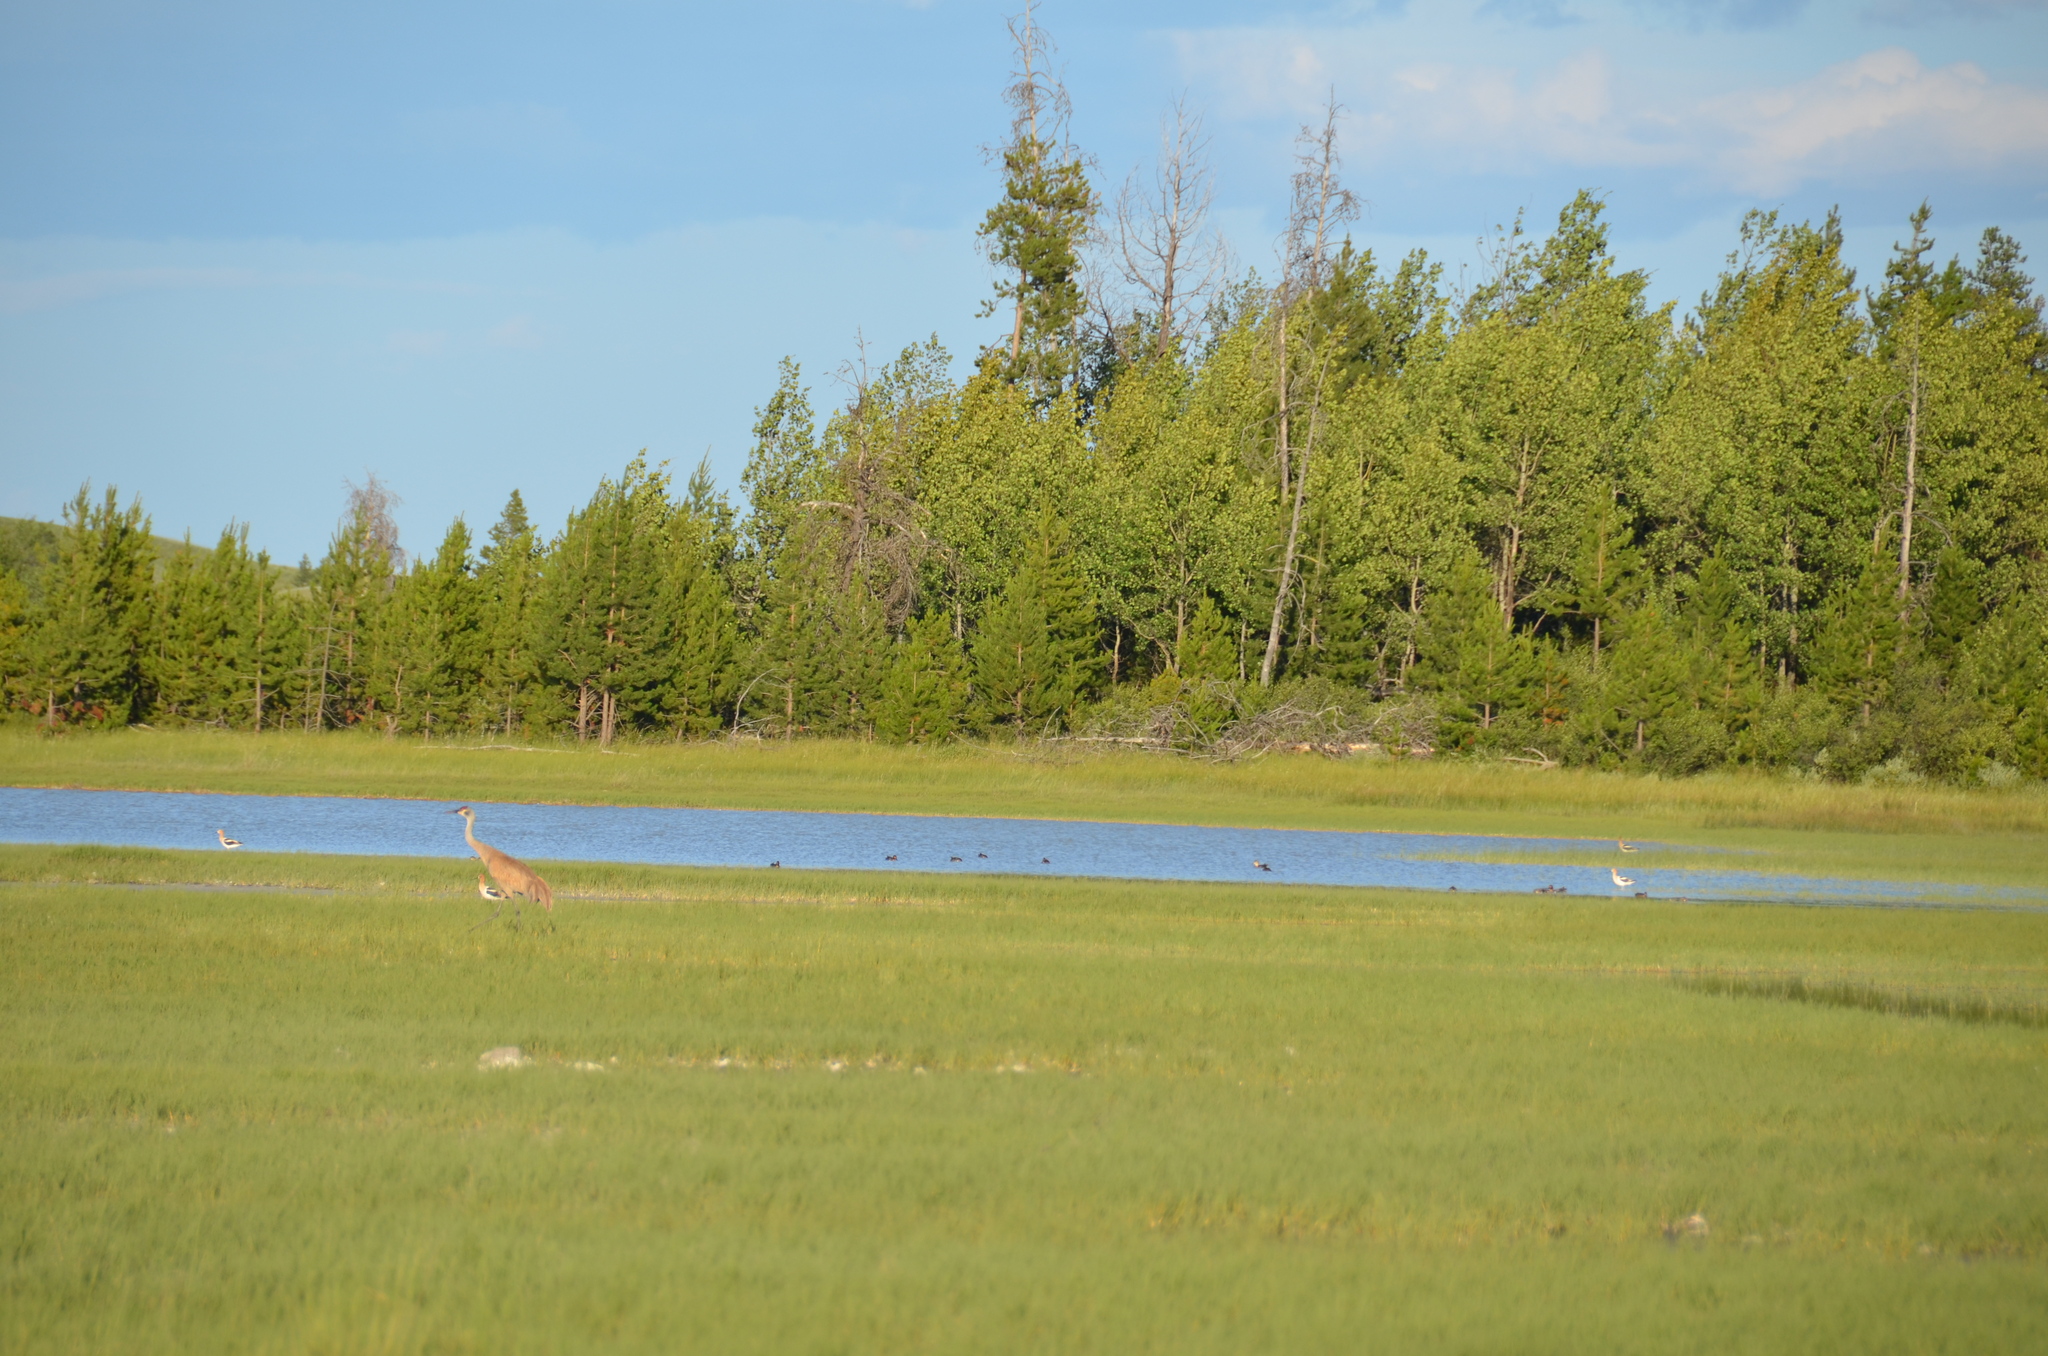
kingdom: Animalia
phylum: Chordata
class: Aves
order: Charadriiformes
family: Recurvirostridae
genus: Recurvirostra
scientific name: Recurvirostra americana
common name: American avocet
